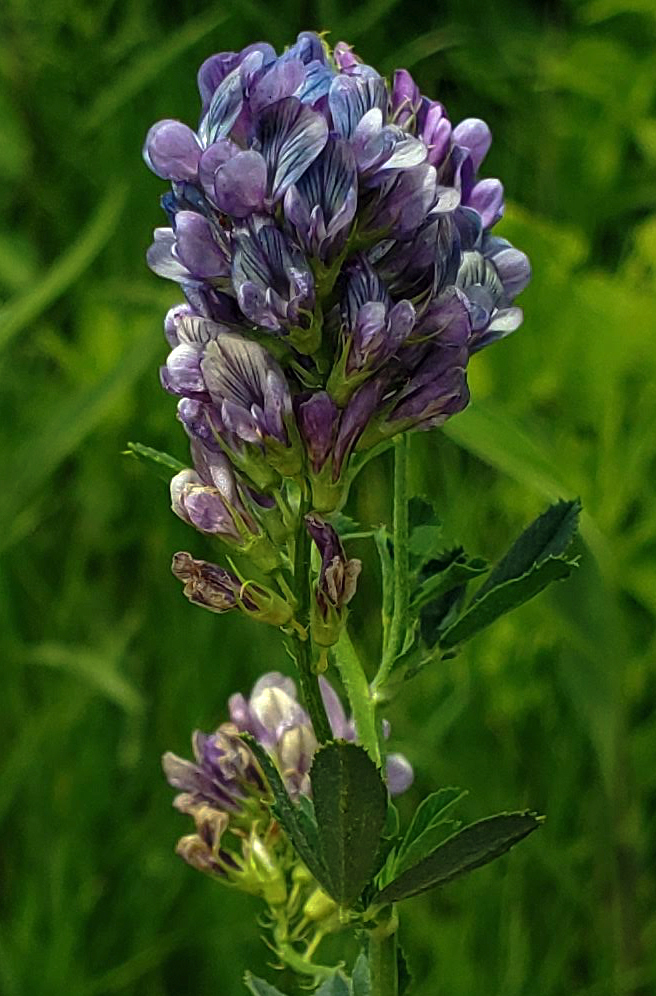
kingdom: Plantae
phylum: Tracheophyta
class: Magnoliopsida
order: Fabales
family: Fabaceae
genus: Medicago
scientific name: Medicago sativa
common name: Alfalfa
